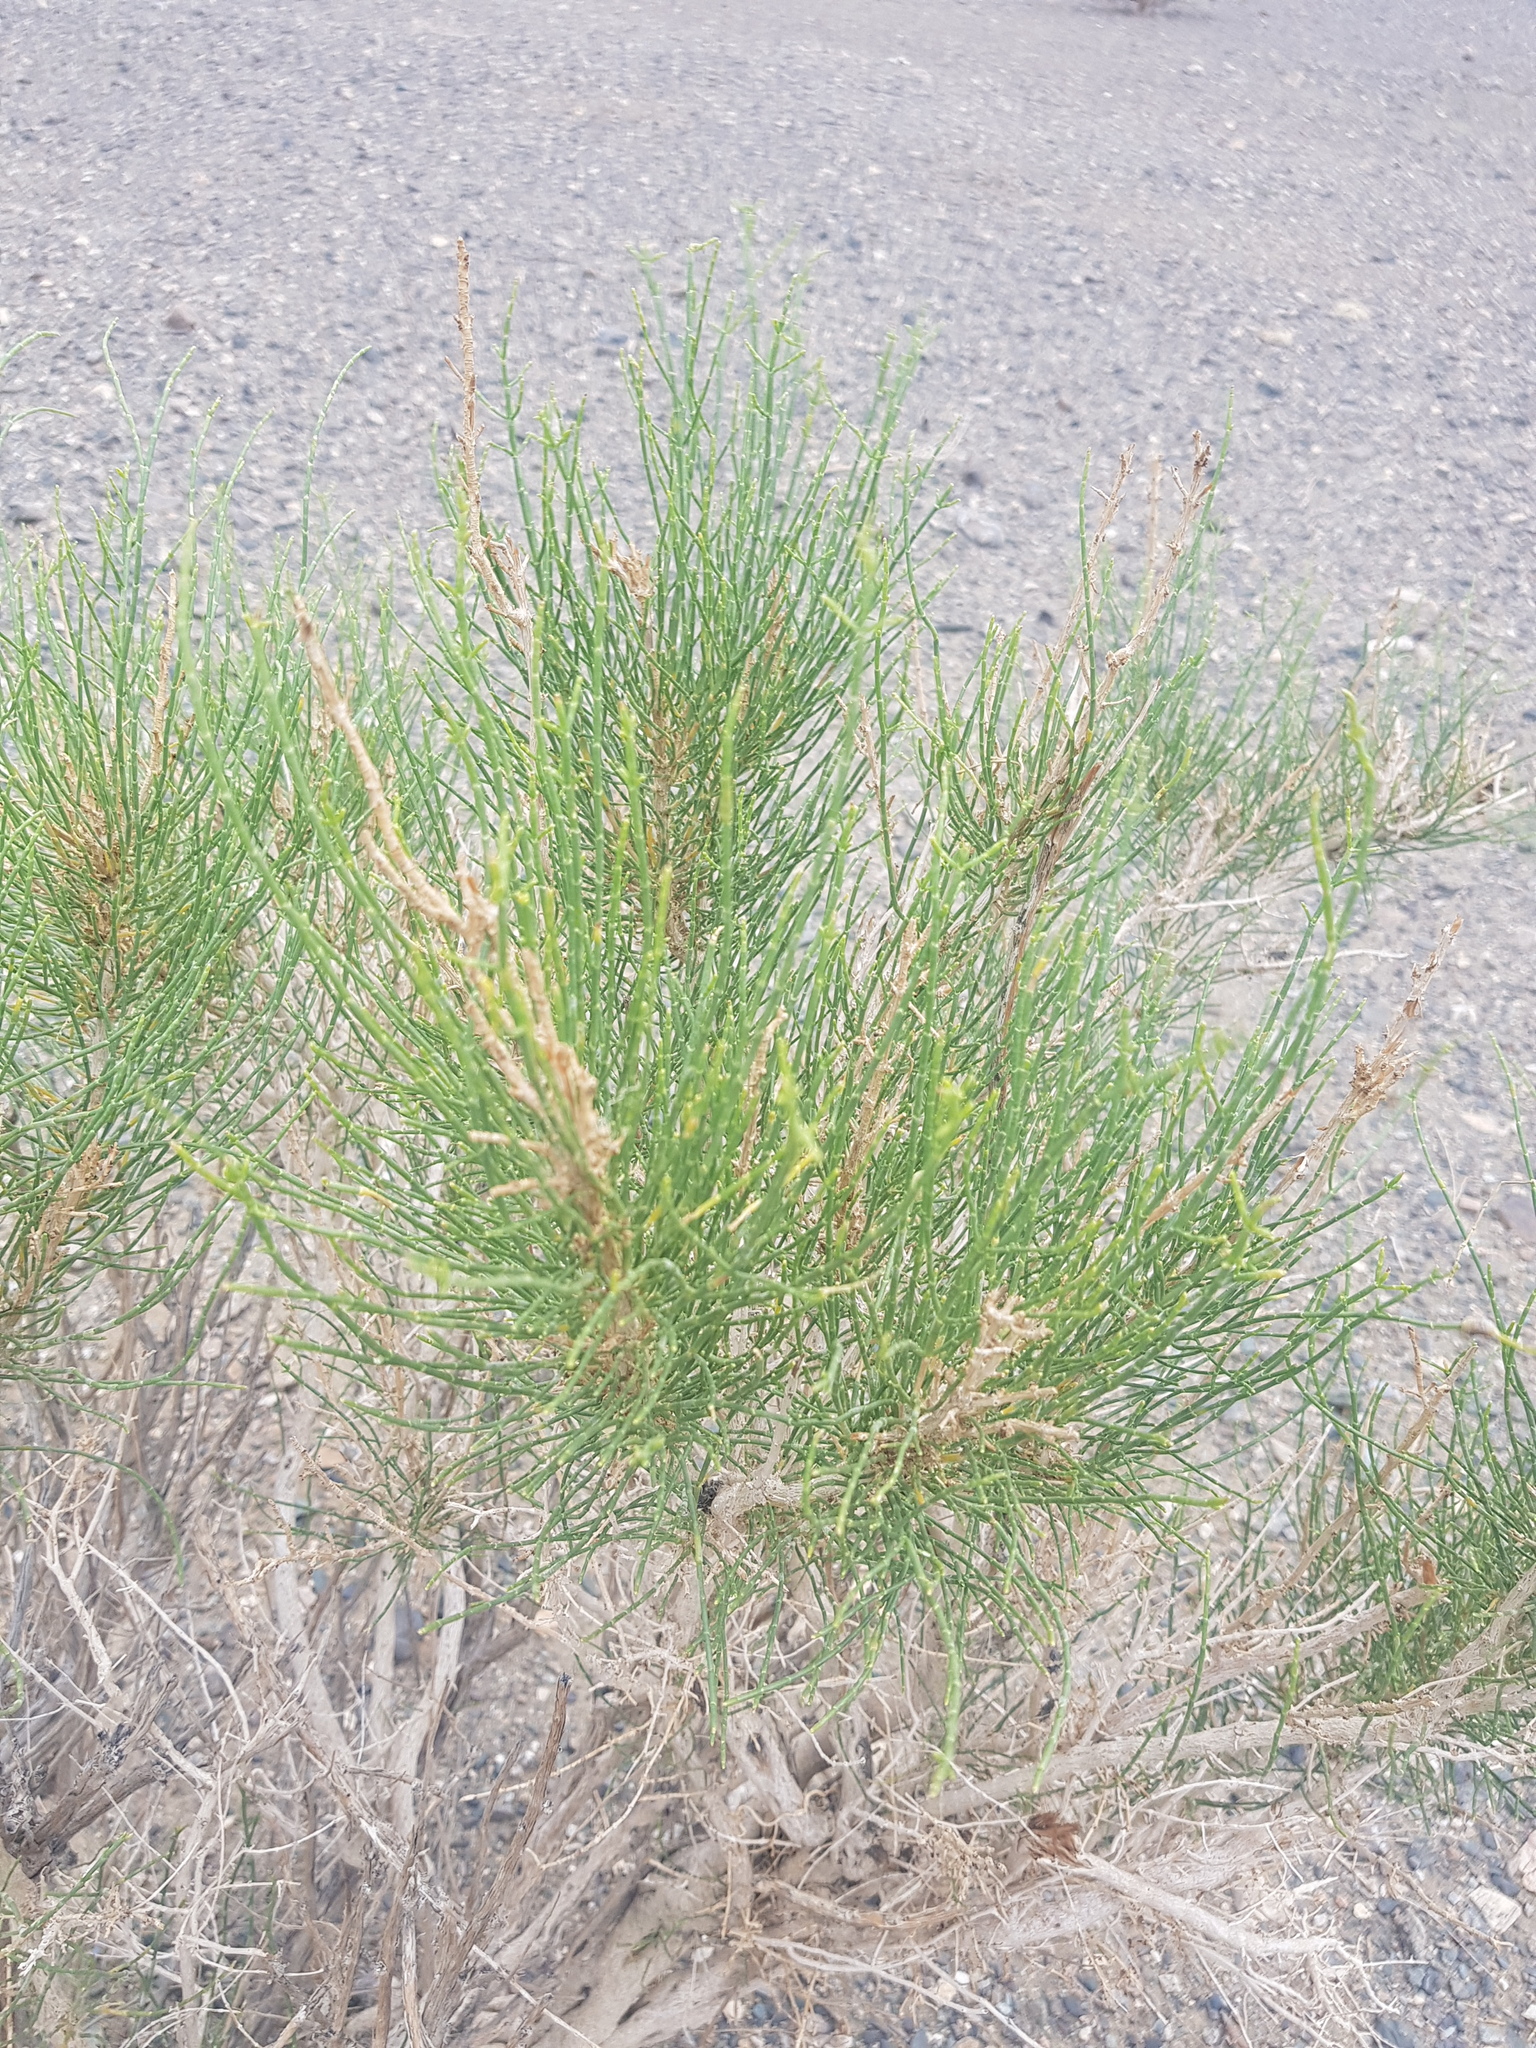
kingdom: Plantae
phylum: Tracheophyta
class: Magnoliopsida
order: Caryophyllales
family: Amaranthaceae
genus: Haloxylon
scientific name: Haloxylon ammodendron
